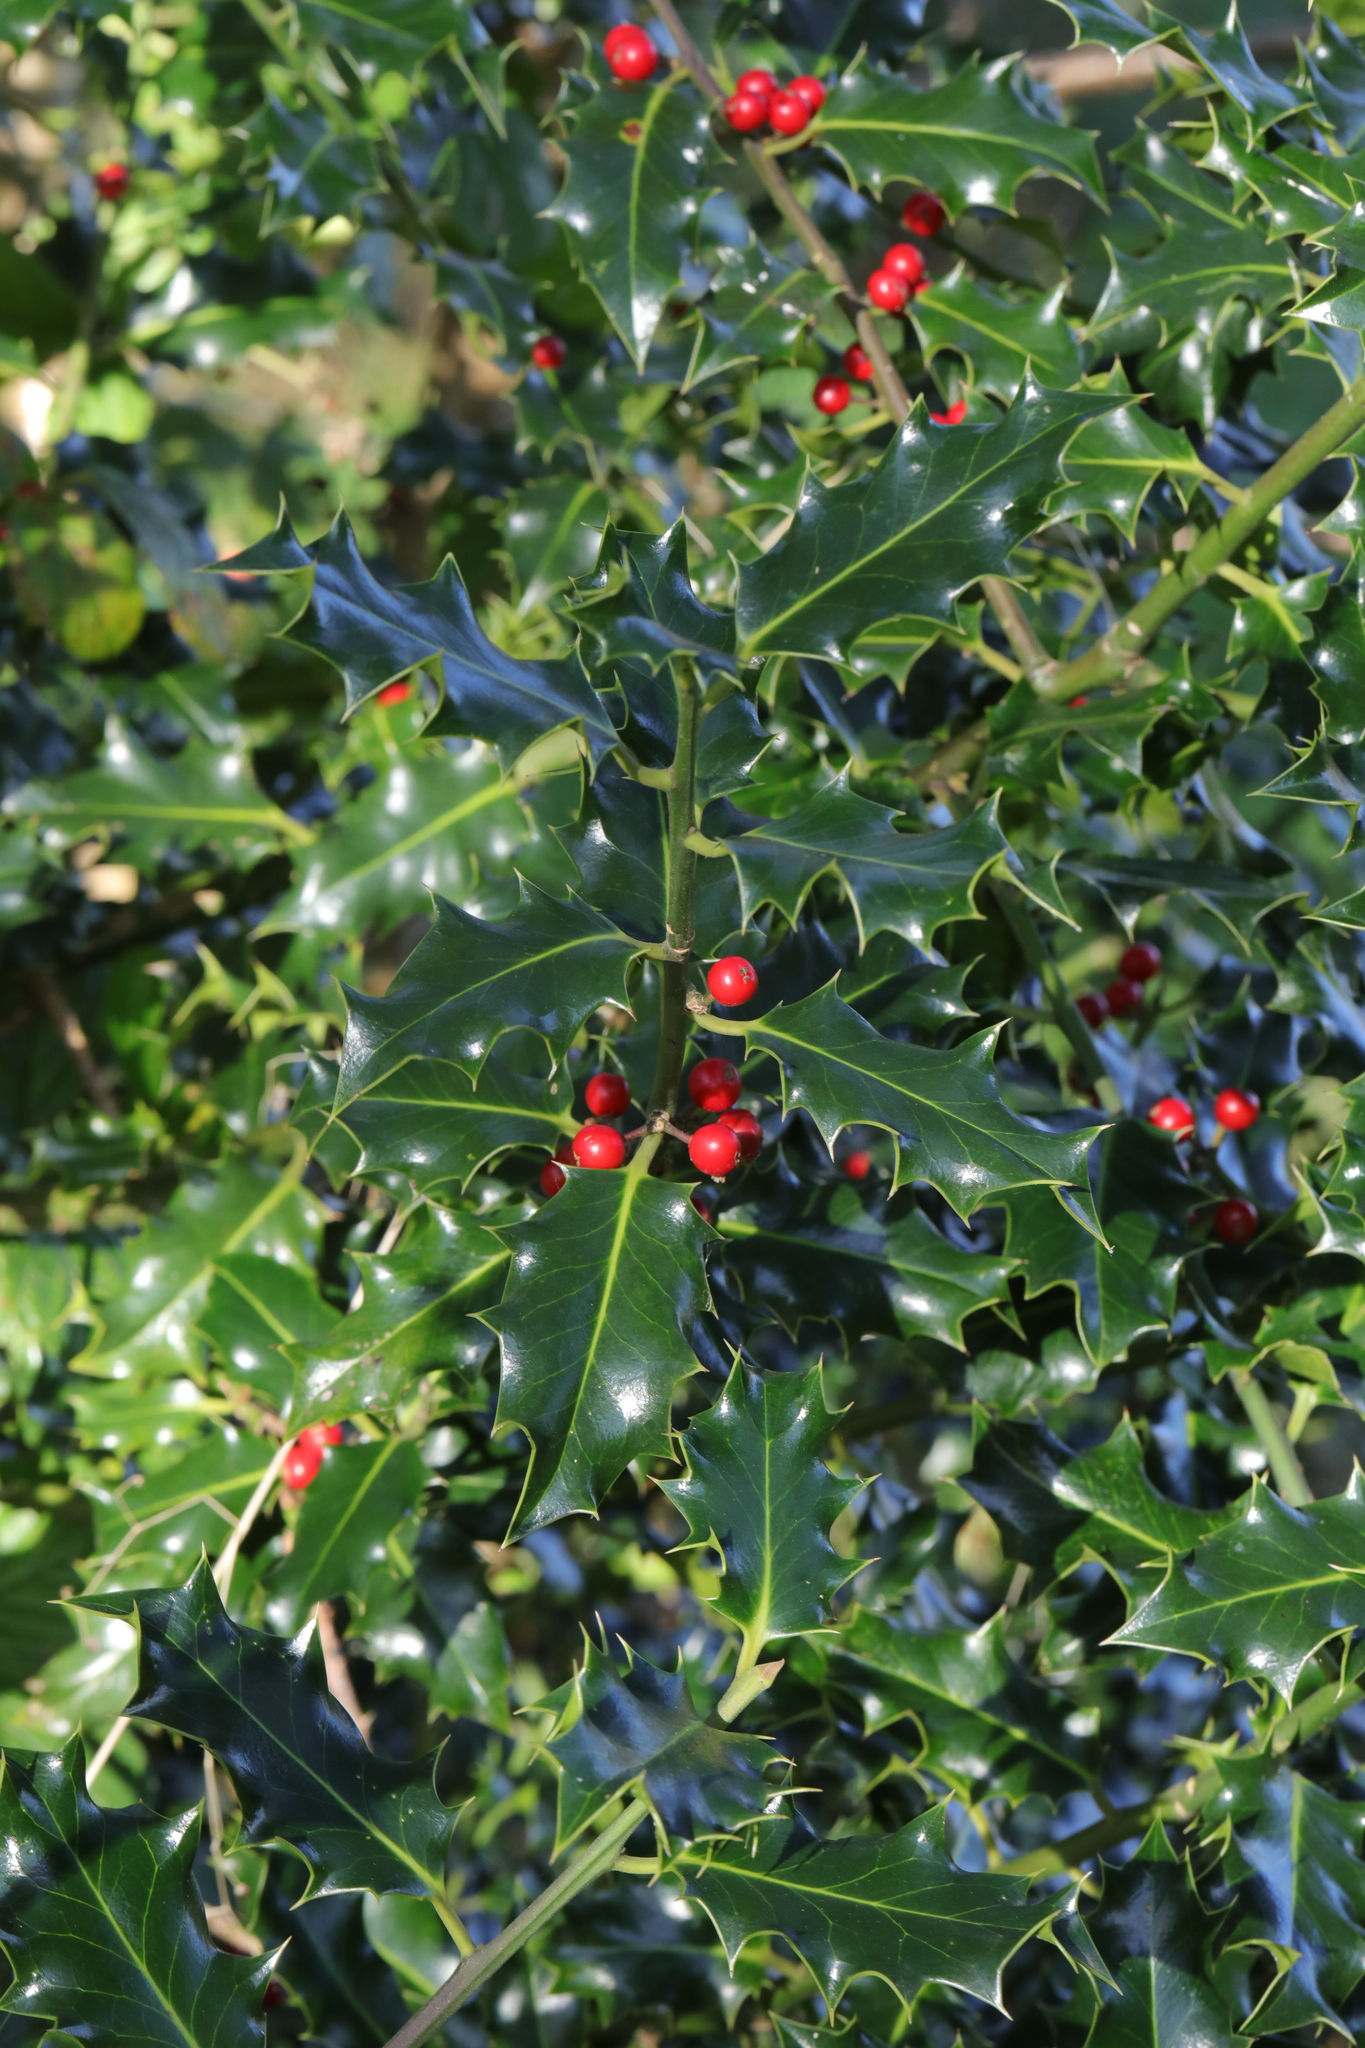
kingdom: Plantae
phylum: Tracheophyta
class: Magnoliopsida
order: Aquifoliales
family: Aquifoliaceae
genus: Ilex
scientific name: Ilex aquifolium
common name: English holly
